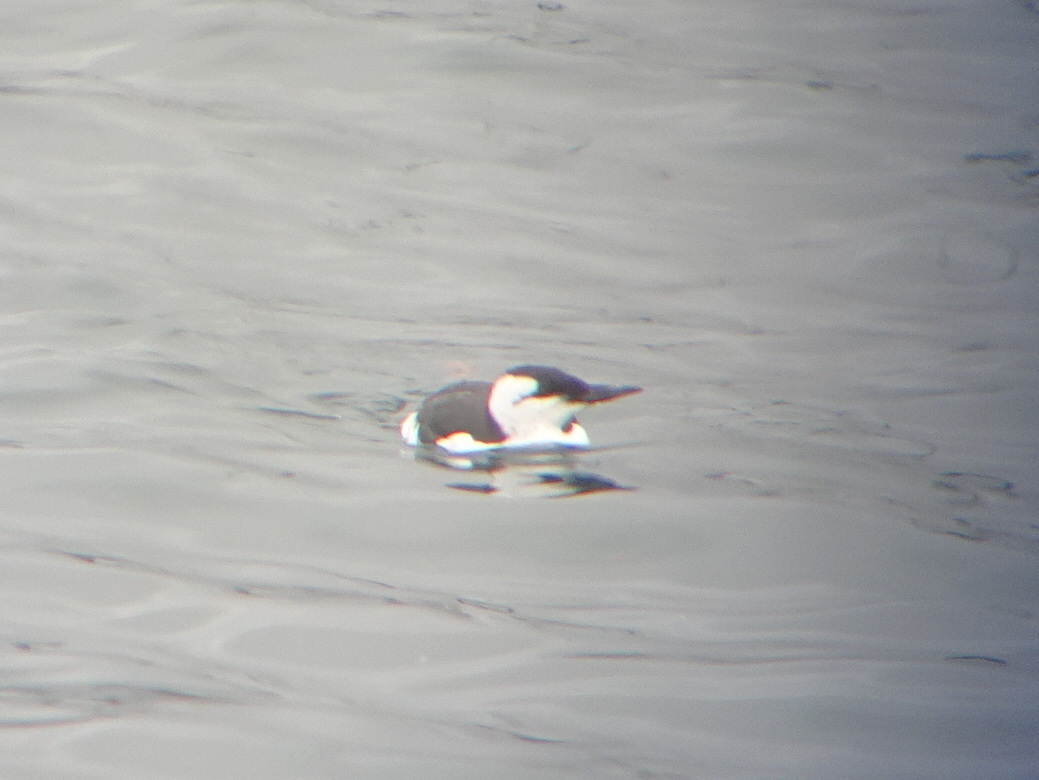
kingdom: Animalia
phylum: Chordata
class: Aves
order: Charadriiformes
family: Alcidae
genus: Uria
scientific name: Uria aalge
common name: Common murre
